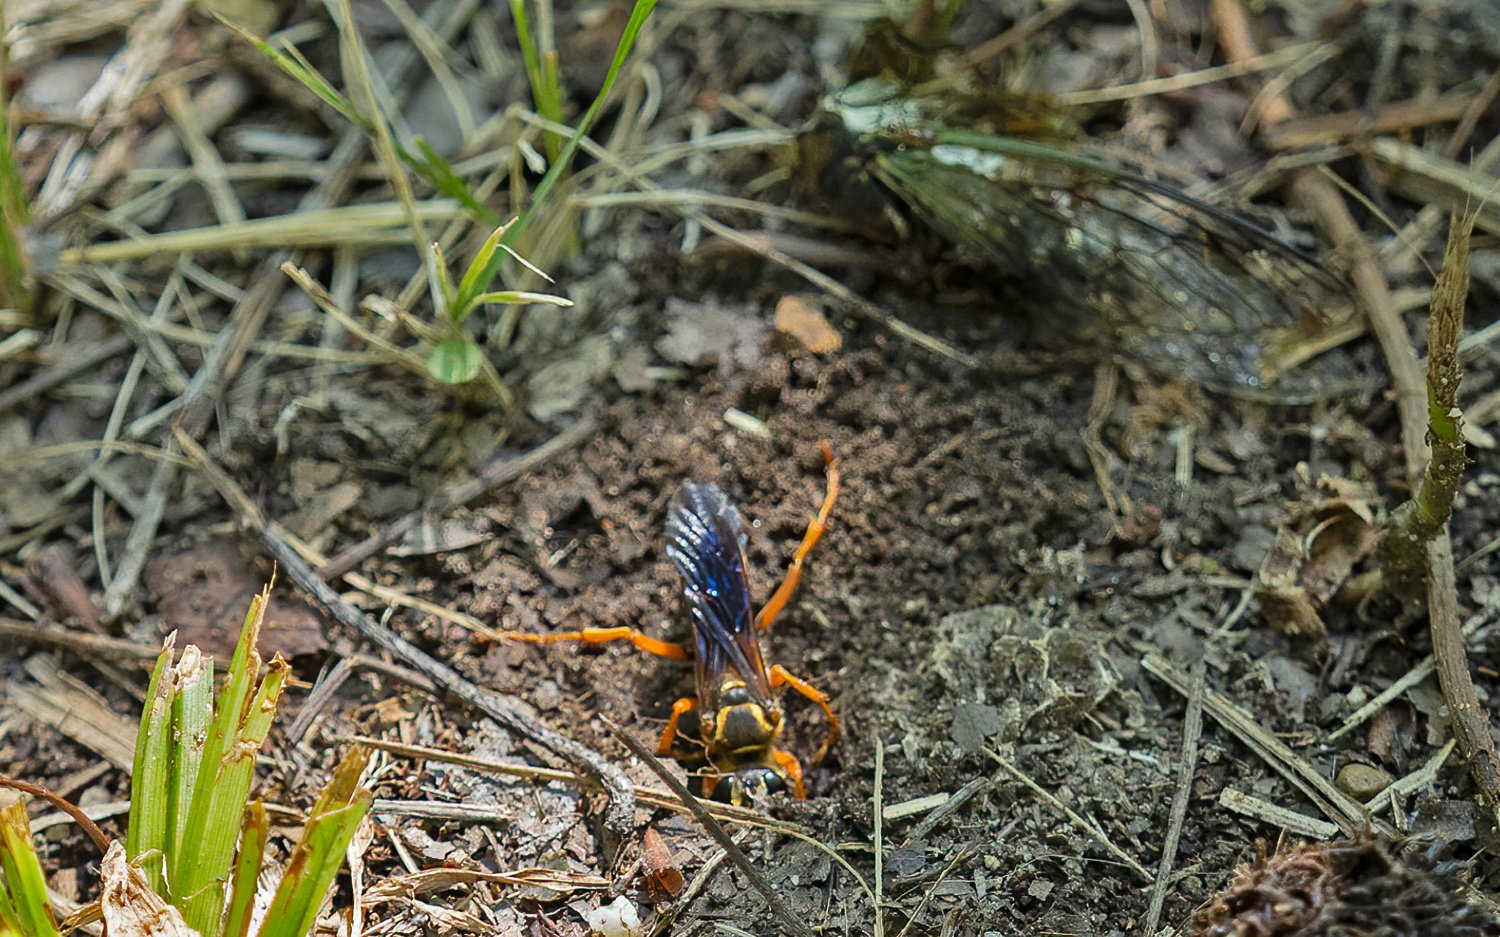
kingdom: Animalia
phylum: Arthropoda
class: Insecta
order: Hymenoptera
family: Sphecidae
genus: Sphex
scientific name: Sphex ichneumoneus
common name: Great golden digger wasp
